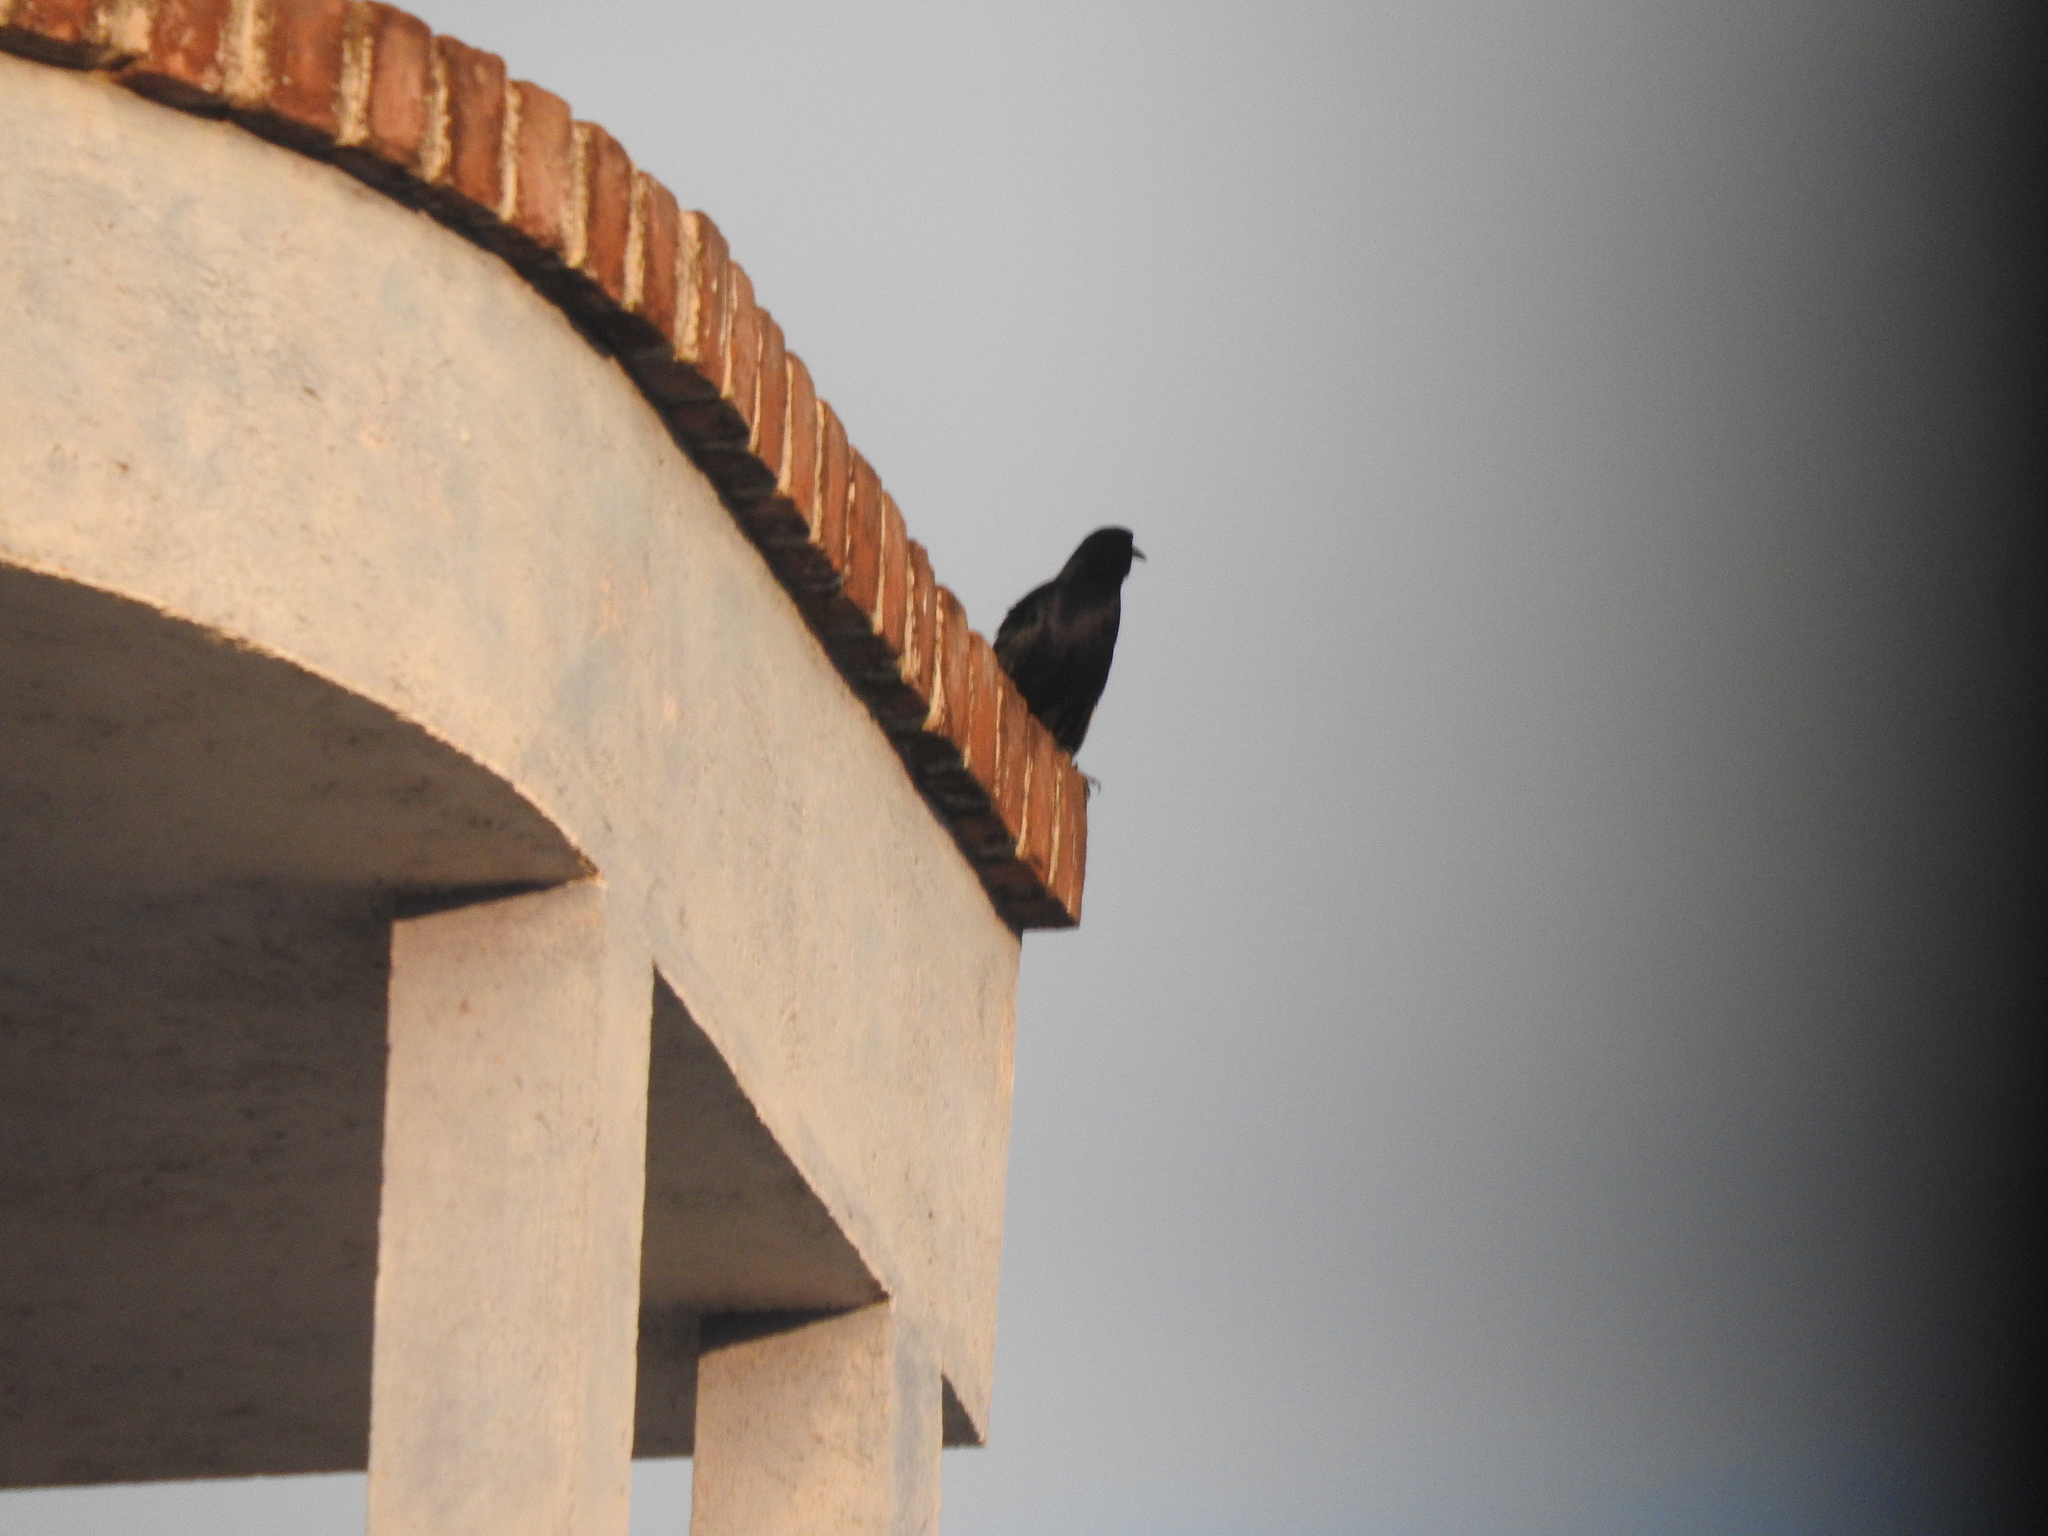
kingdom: Animalia
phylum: Chordata
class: Aves
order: Passeriformes
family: Icteridae
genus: Quiscalus
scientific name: Quiscalus mexicanus
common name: Great-tailed grackle
